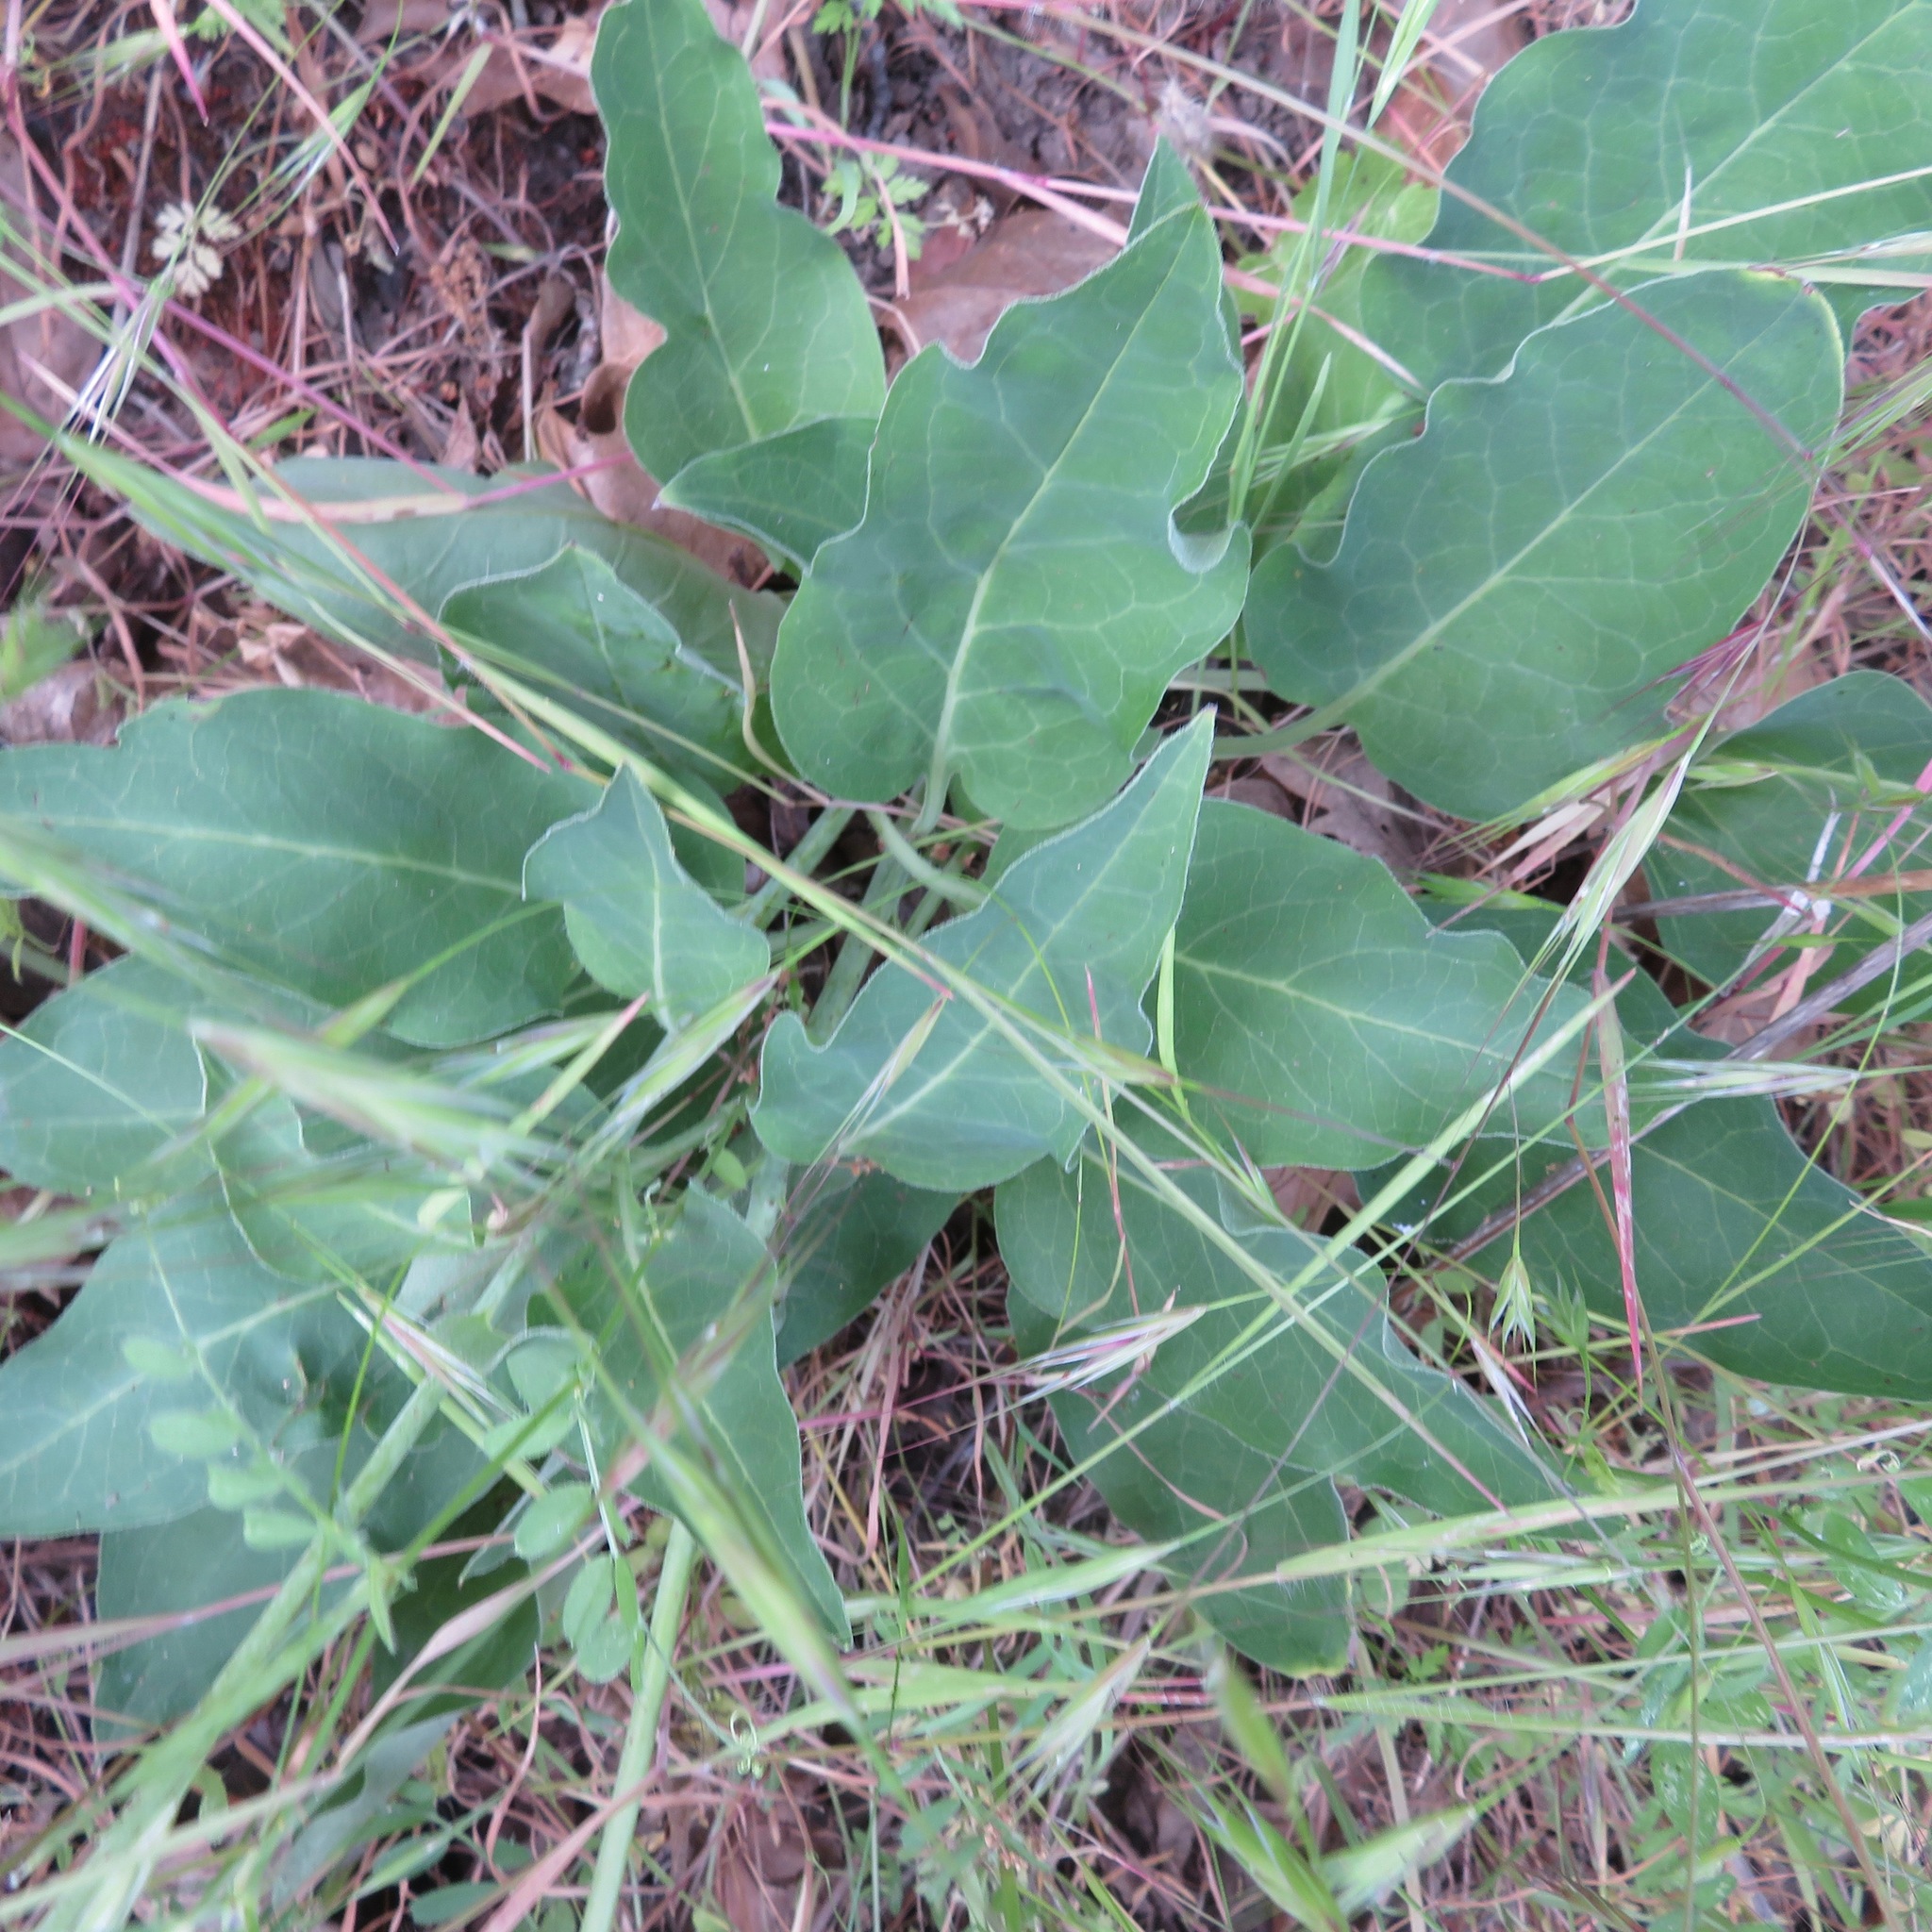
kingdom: Plantae
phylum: Tracheophyta
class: Magnoliopsida
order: Boraginales
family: Boraginaceae
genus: Adelinia
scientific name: Adelinia grande
